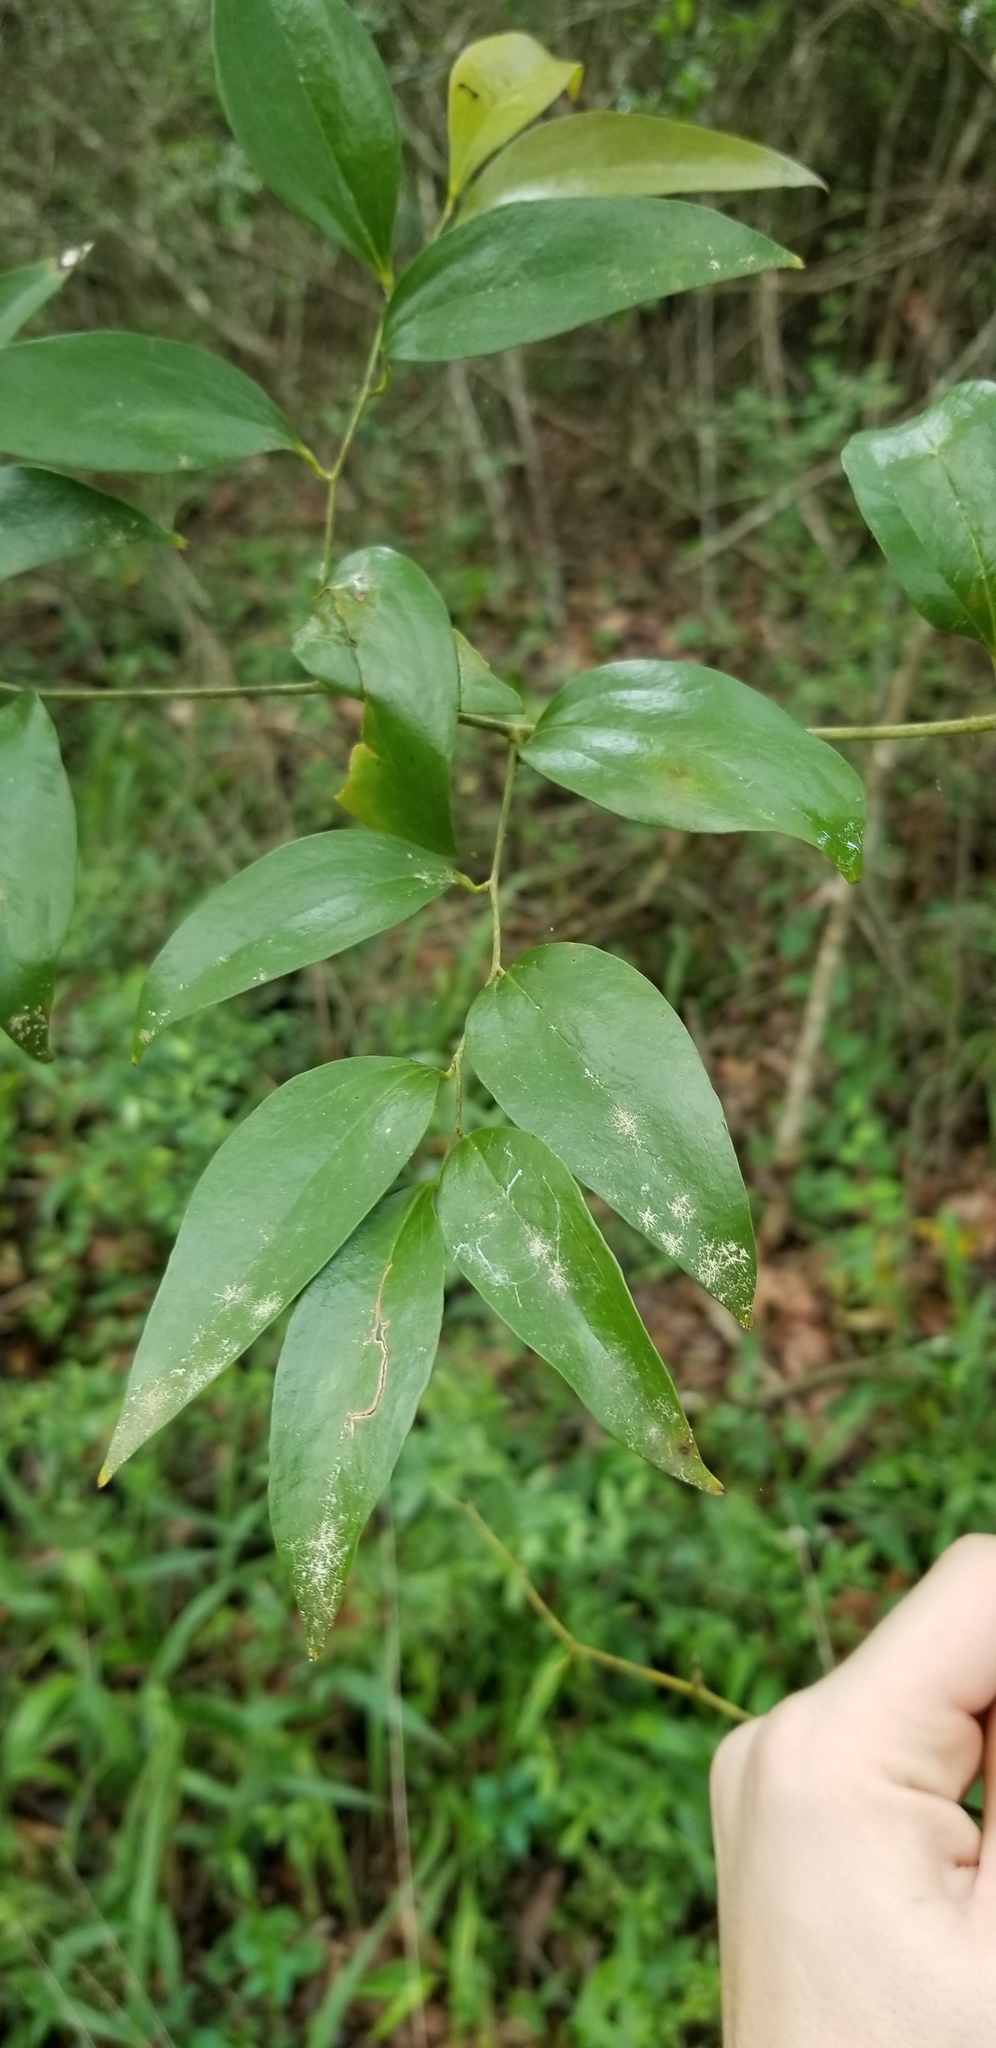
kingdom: Plantae
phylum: Tracheophyta
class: Liliopsida
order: Liliales
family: Smilacaceae
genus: Smilax
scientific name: Smilax maritima
